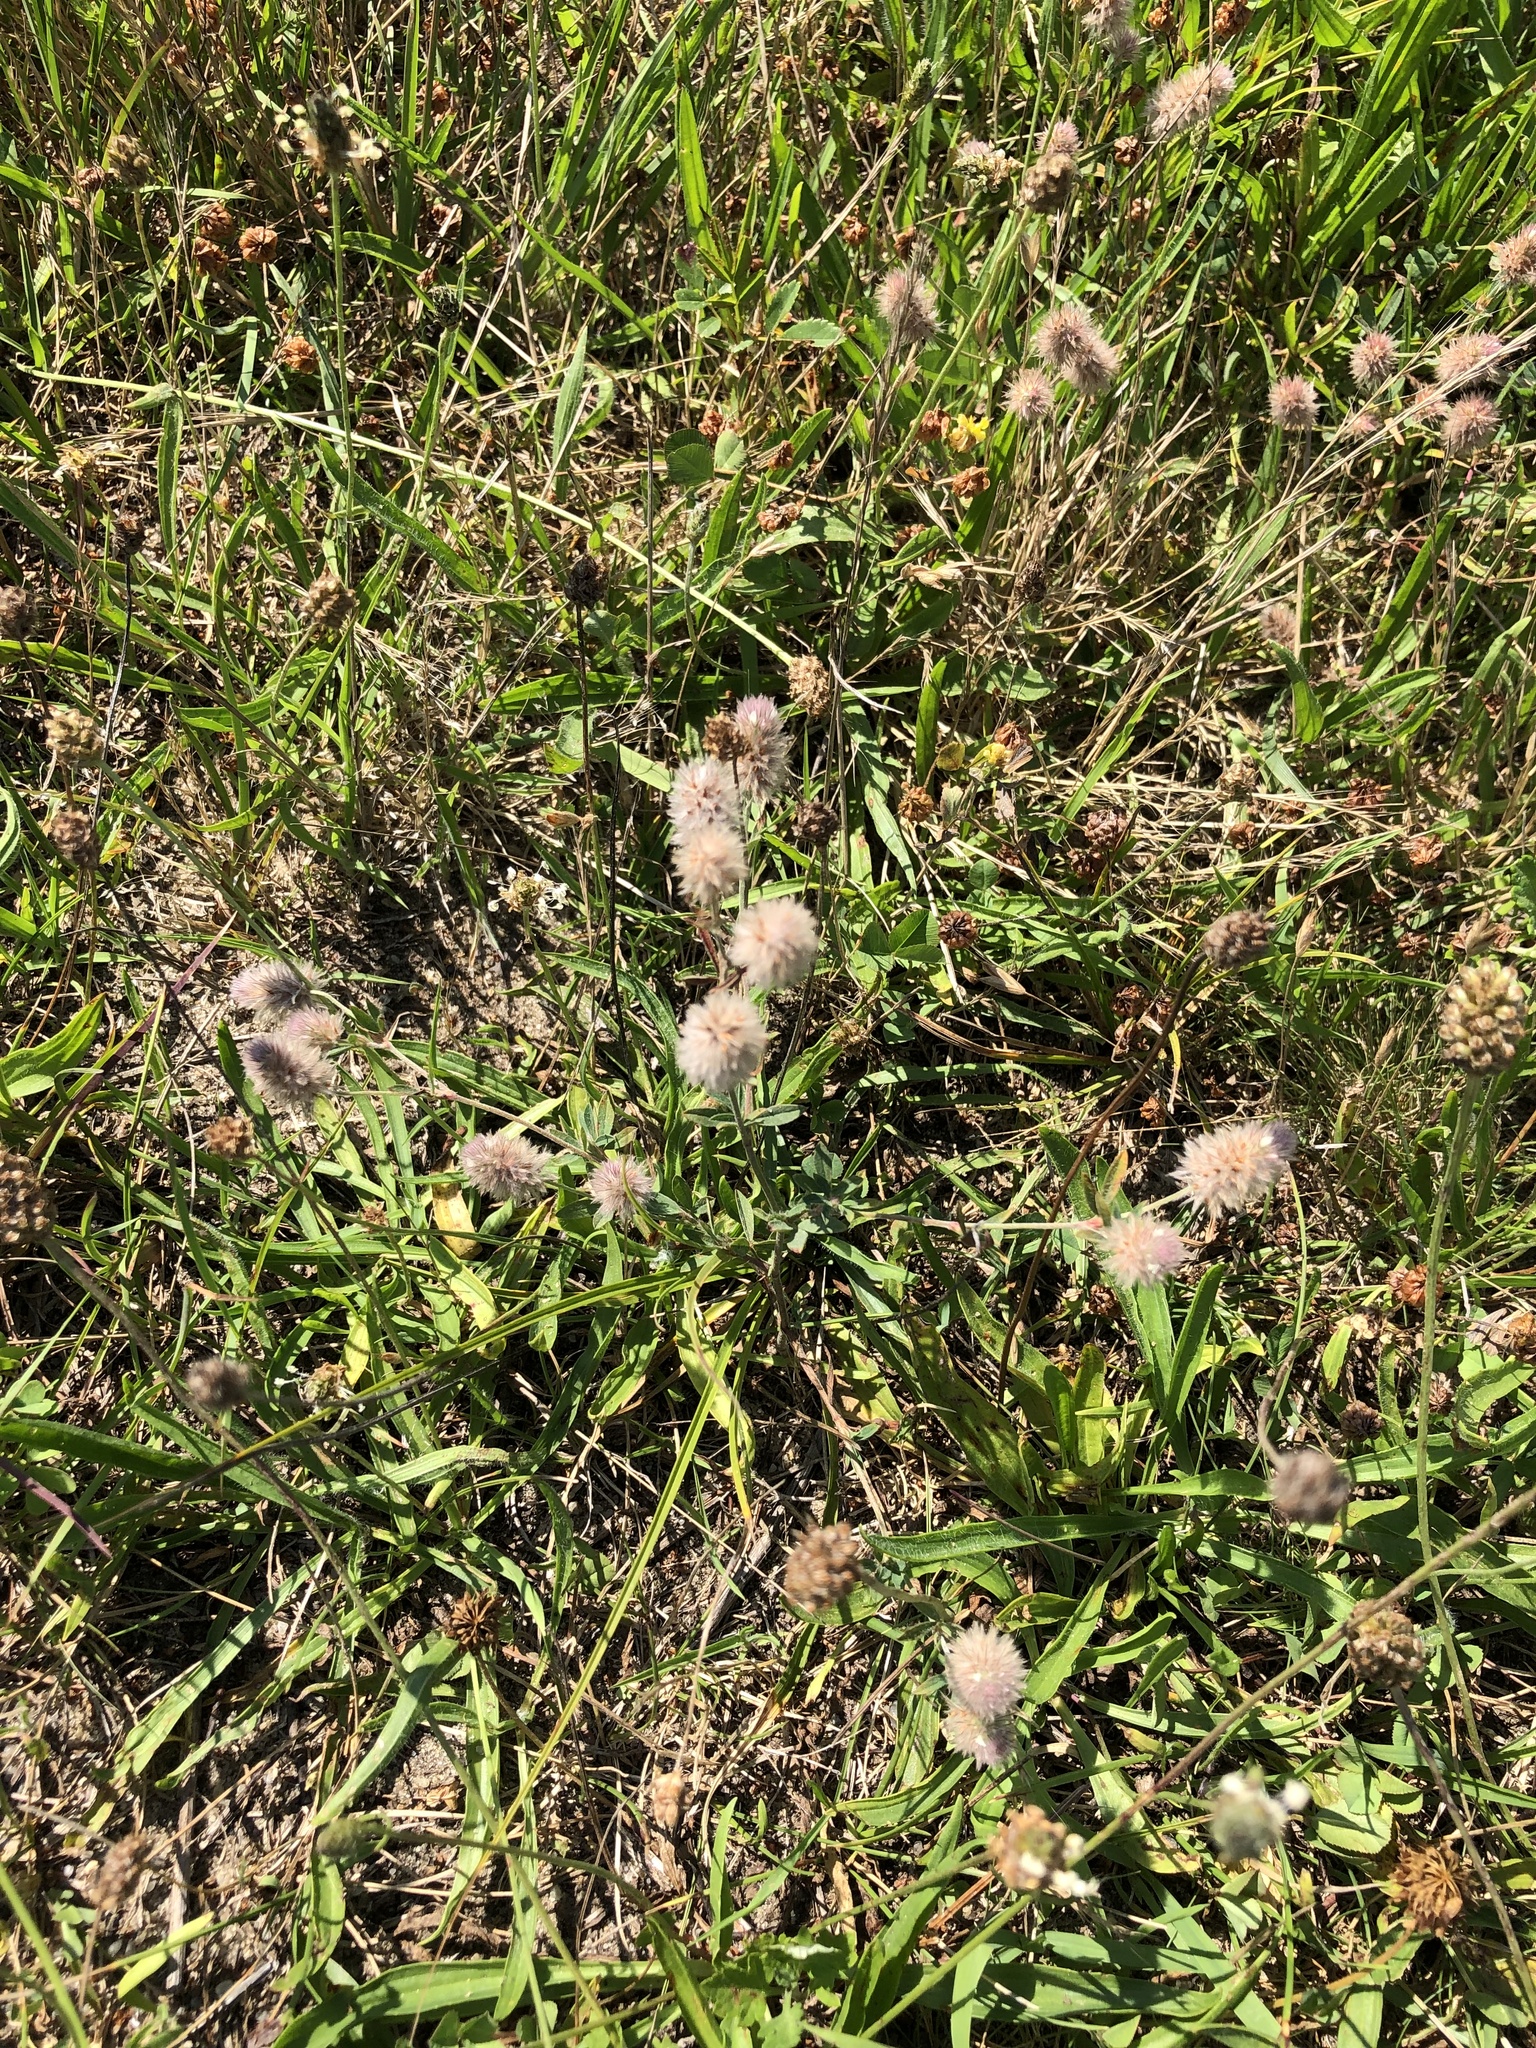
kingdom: Plantae
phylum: Tracheophyta
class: Magnoliopsida
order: Fabales
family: Fabaceae
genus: Trifolium
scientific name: Trifolium arvense
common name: Hare's-foot clover
